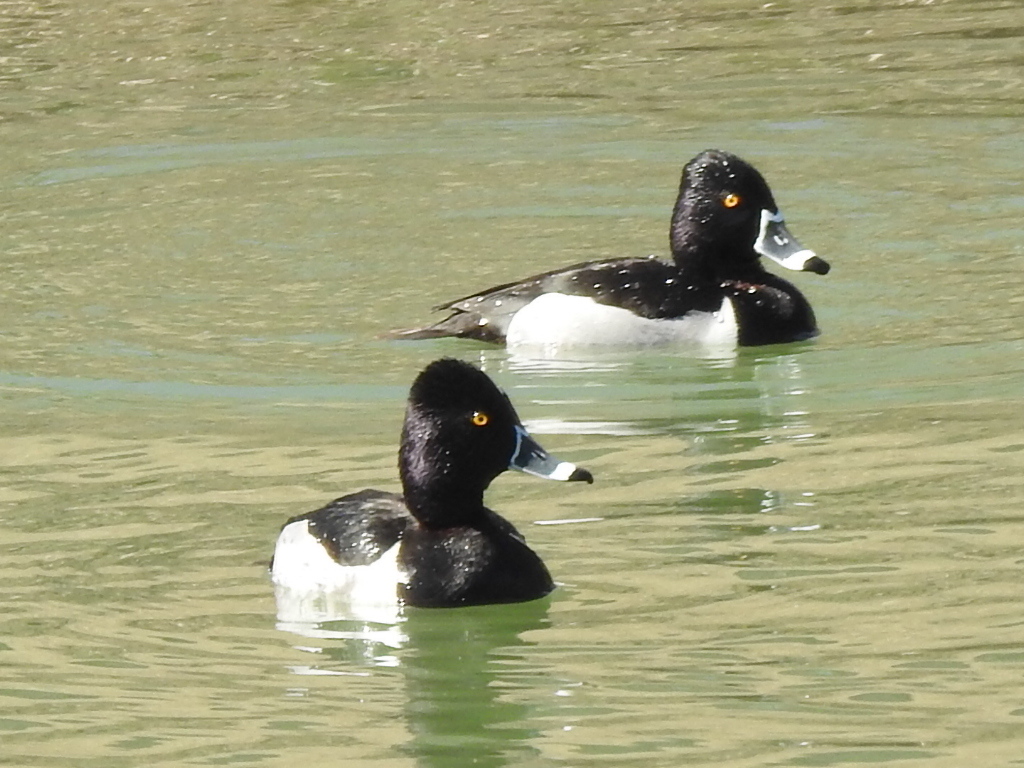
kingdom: Animalia
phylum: Chordata
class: Aves
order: Anseriformes
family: Anatidae
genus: Aythya
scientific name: Aythya collaris
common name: Ring-necked duck
